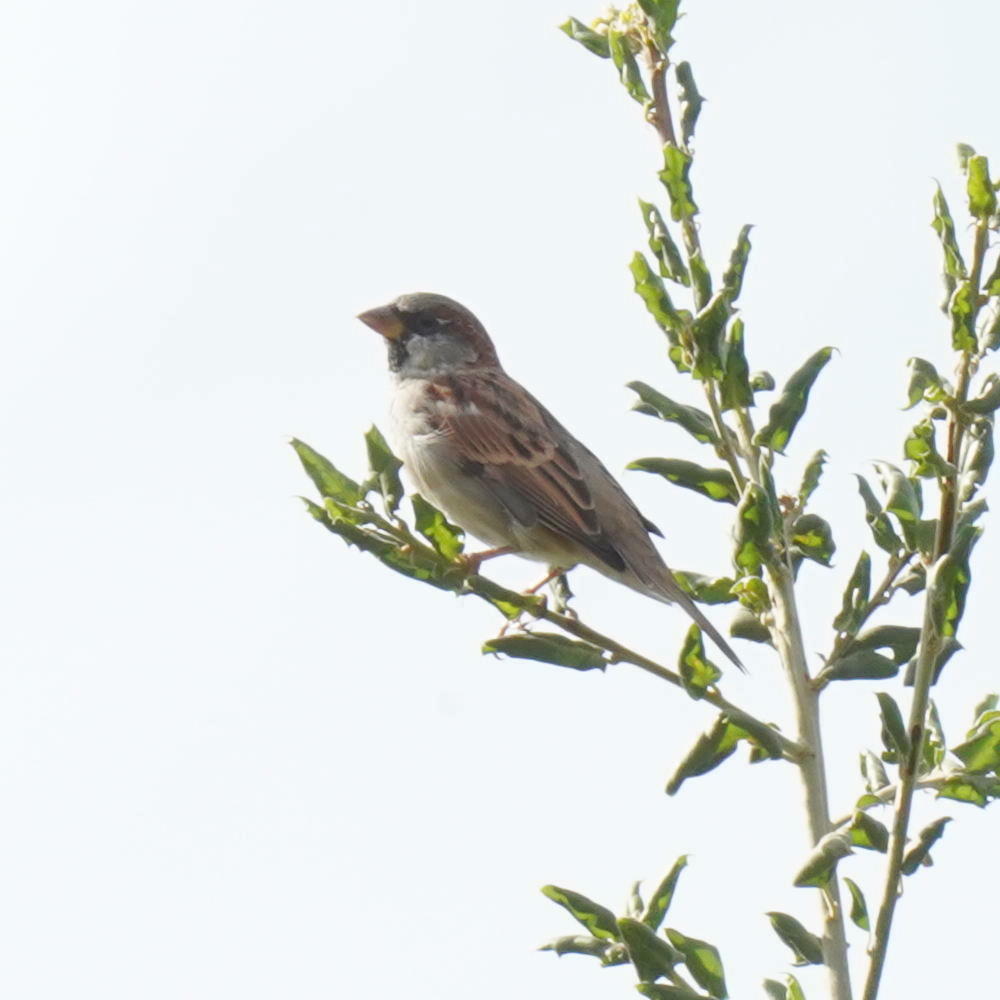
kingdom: Animalia
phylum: Chordata
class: Aves
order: Passeriformes
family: Passeridae
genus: Passer
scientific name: Passer domesticus
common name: House sparrow
